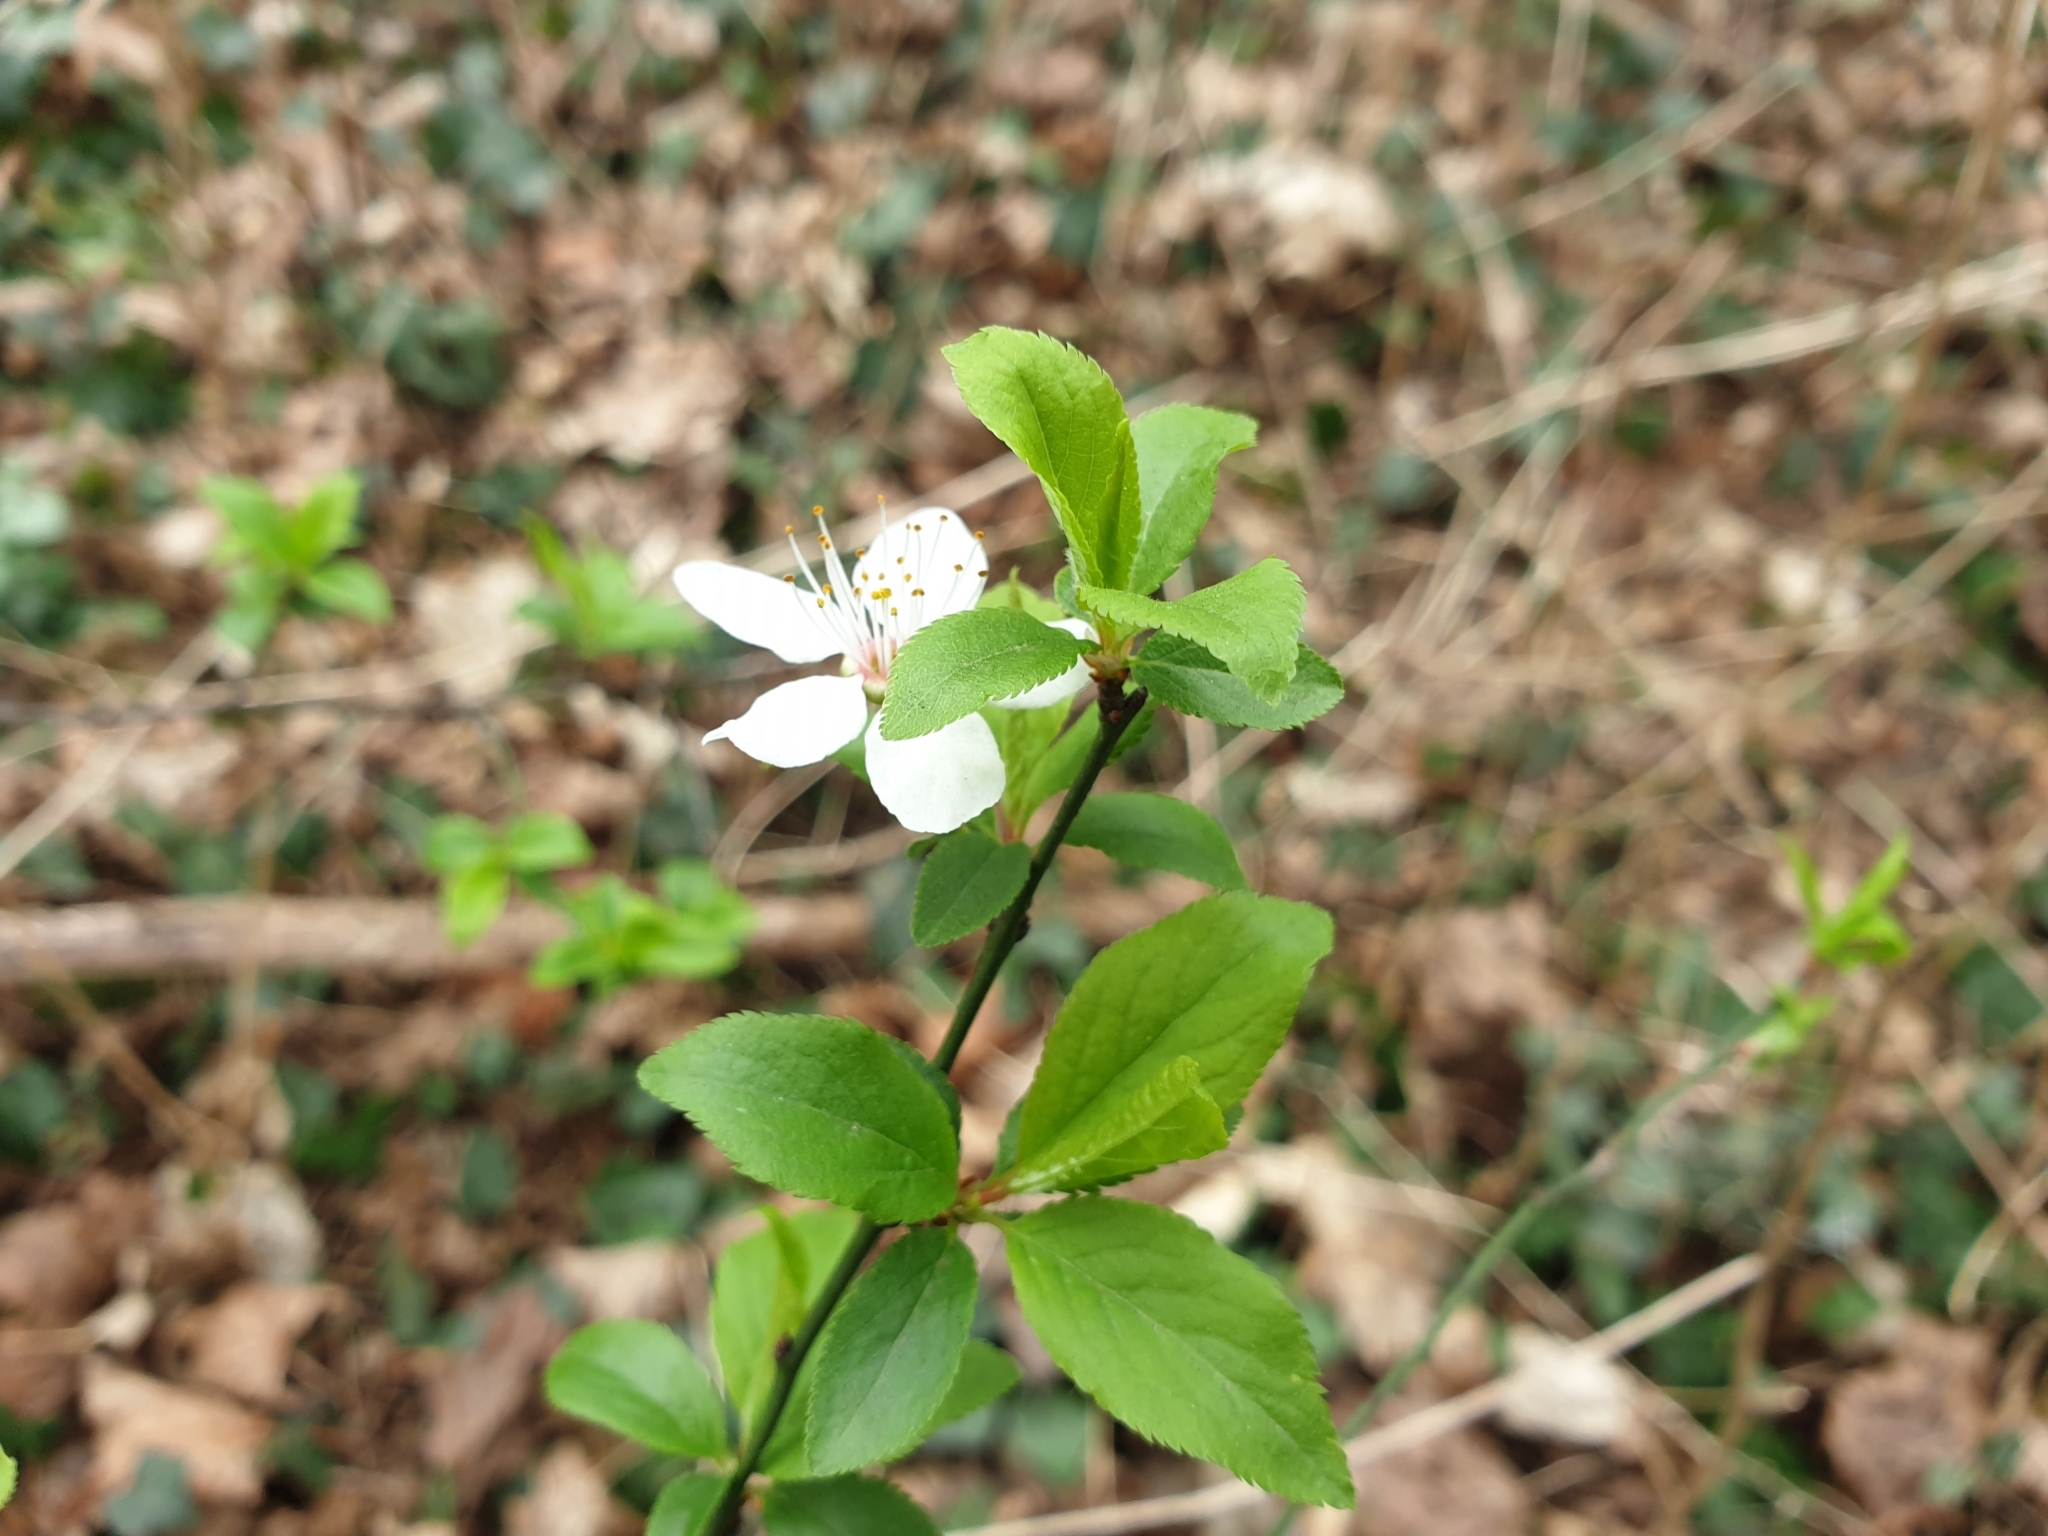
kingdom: Plantae
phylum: Tracheophyta
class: Magnoliopsida
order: Rosales
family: Rosaceae
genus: Prunus
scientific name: Prunus cerasifera
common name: Cherry plum
